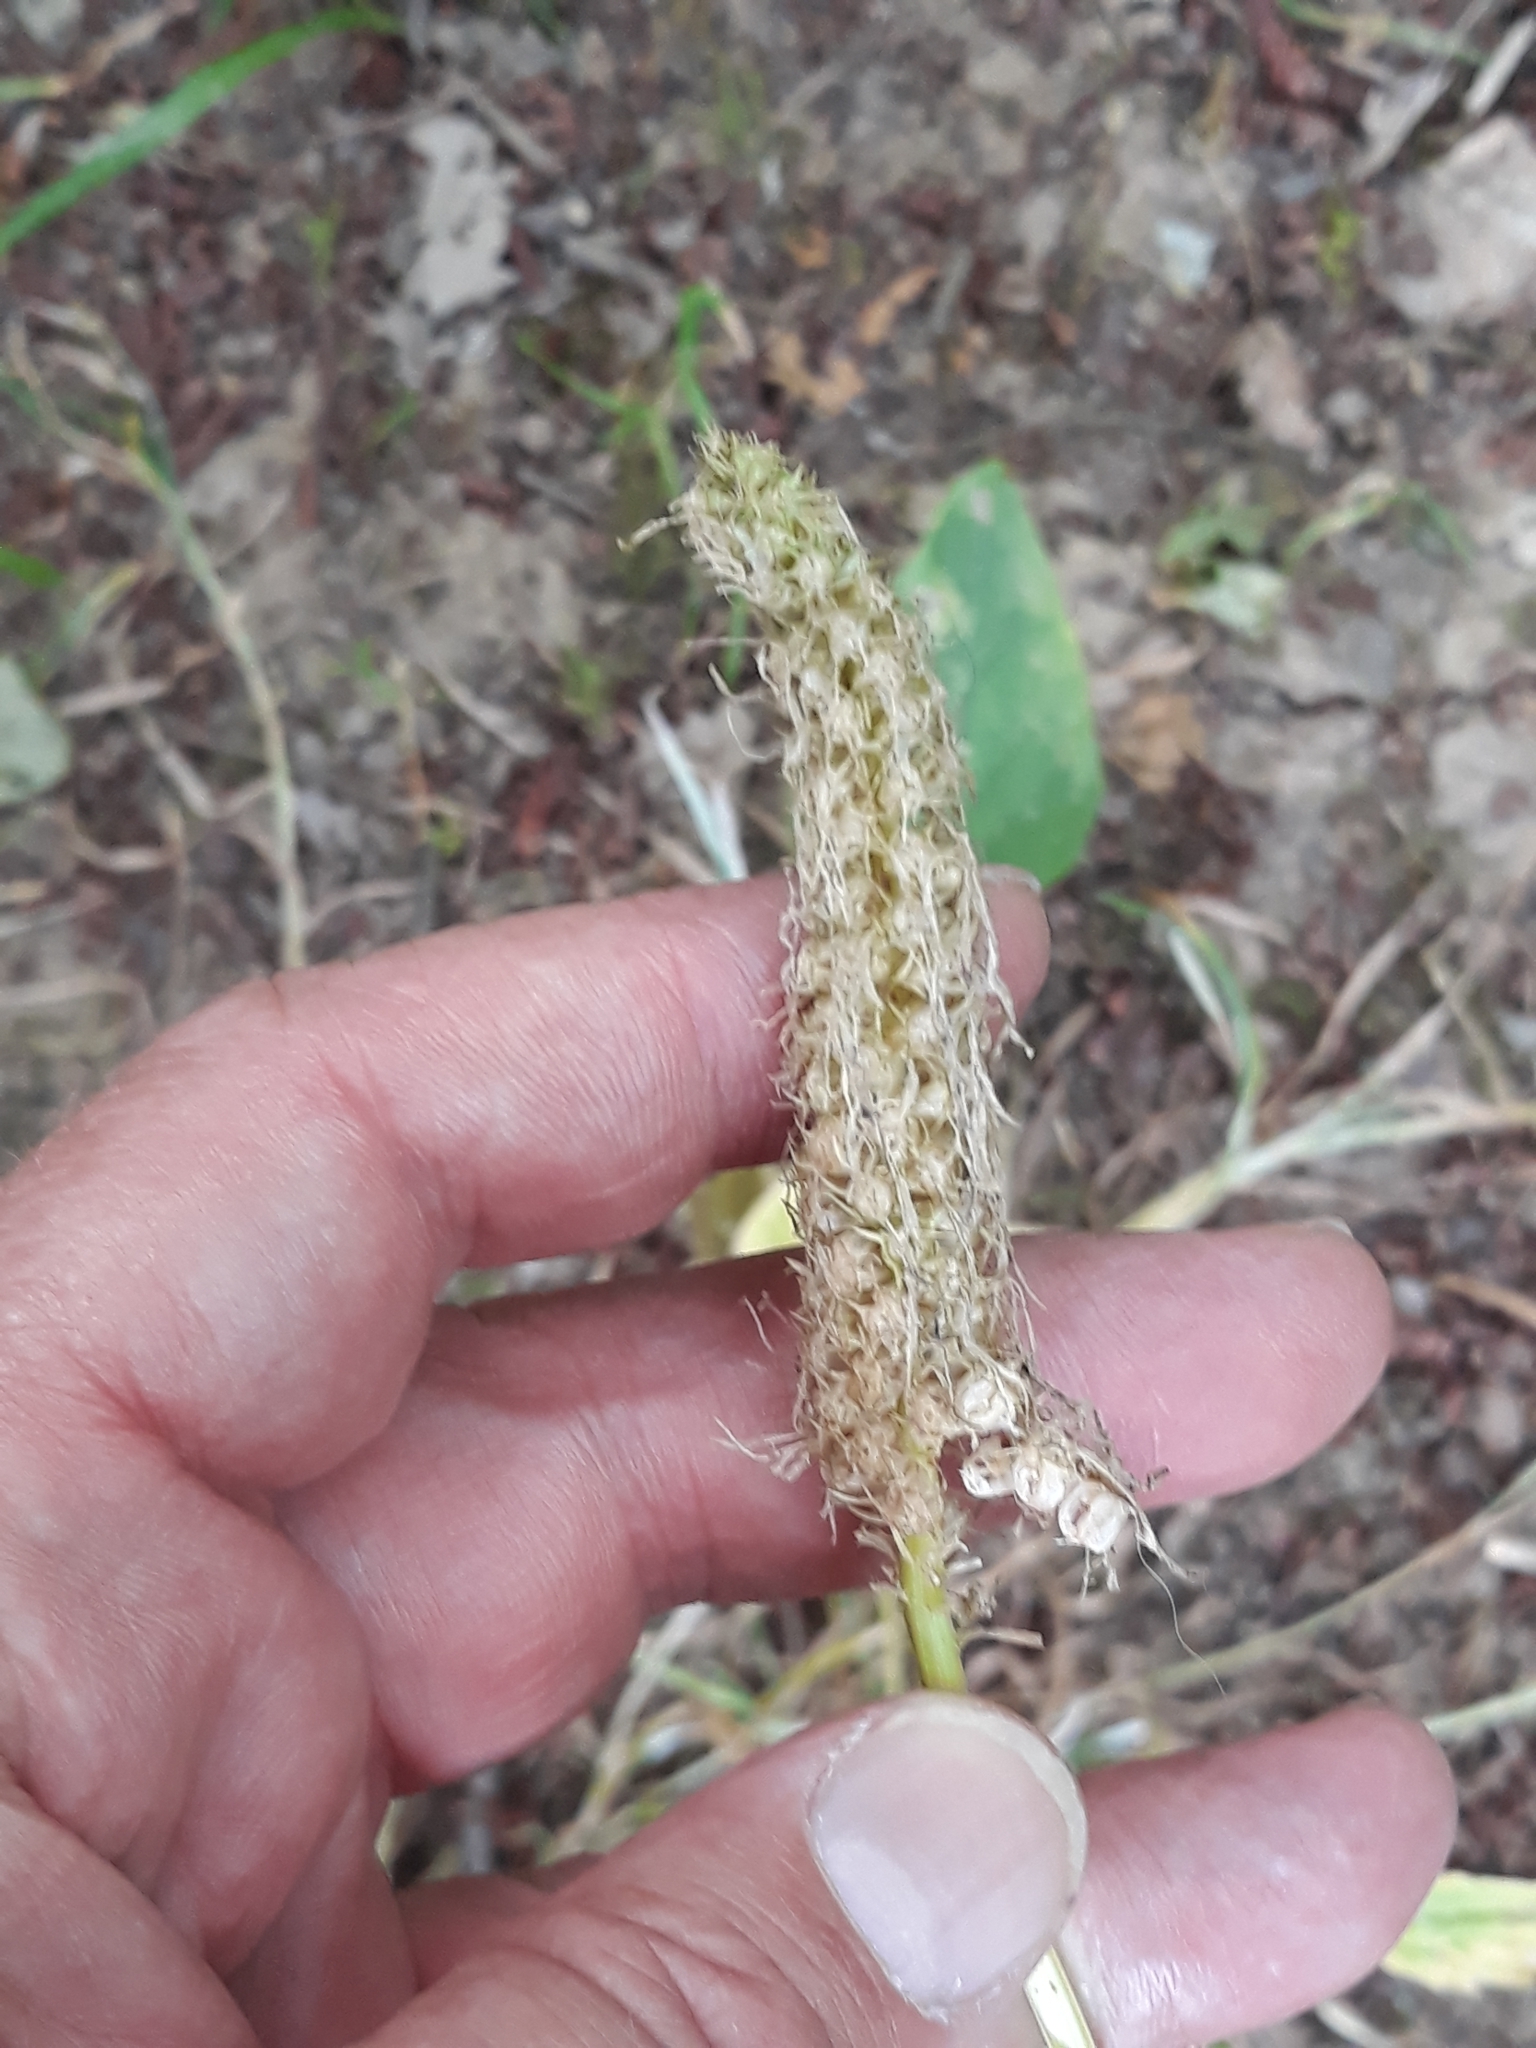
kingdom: Plantae
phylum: Tracheophyta
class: Magnoliopsida
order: Asterales
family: Campanulaceae
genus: Phyteuma
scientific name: Phyteuma spicatum
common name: Spiked rampion
